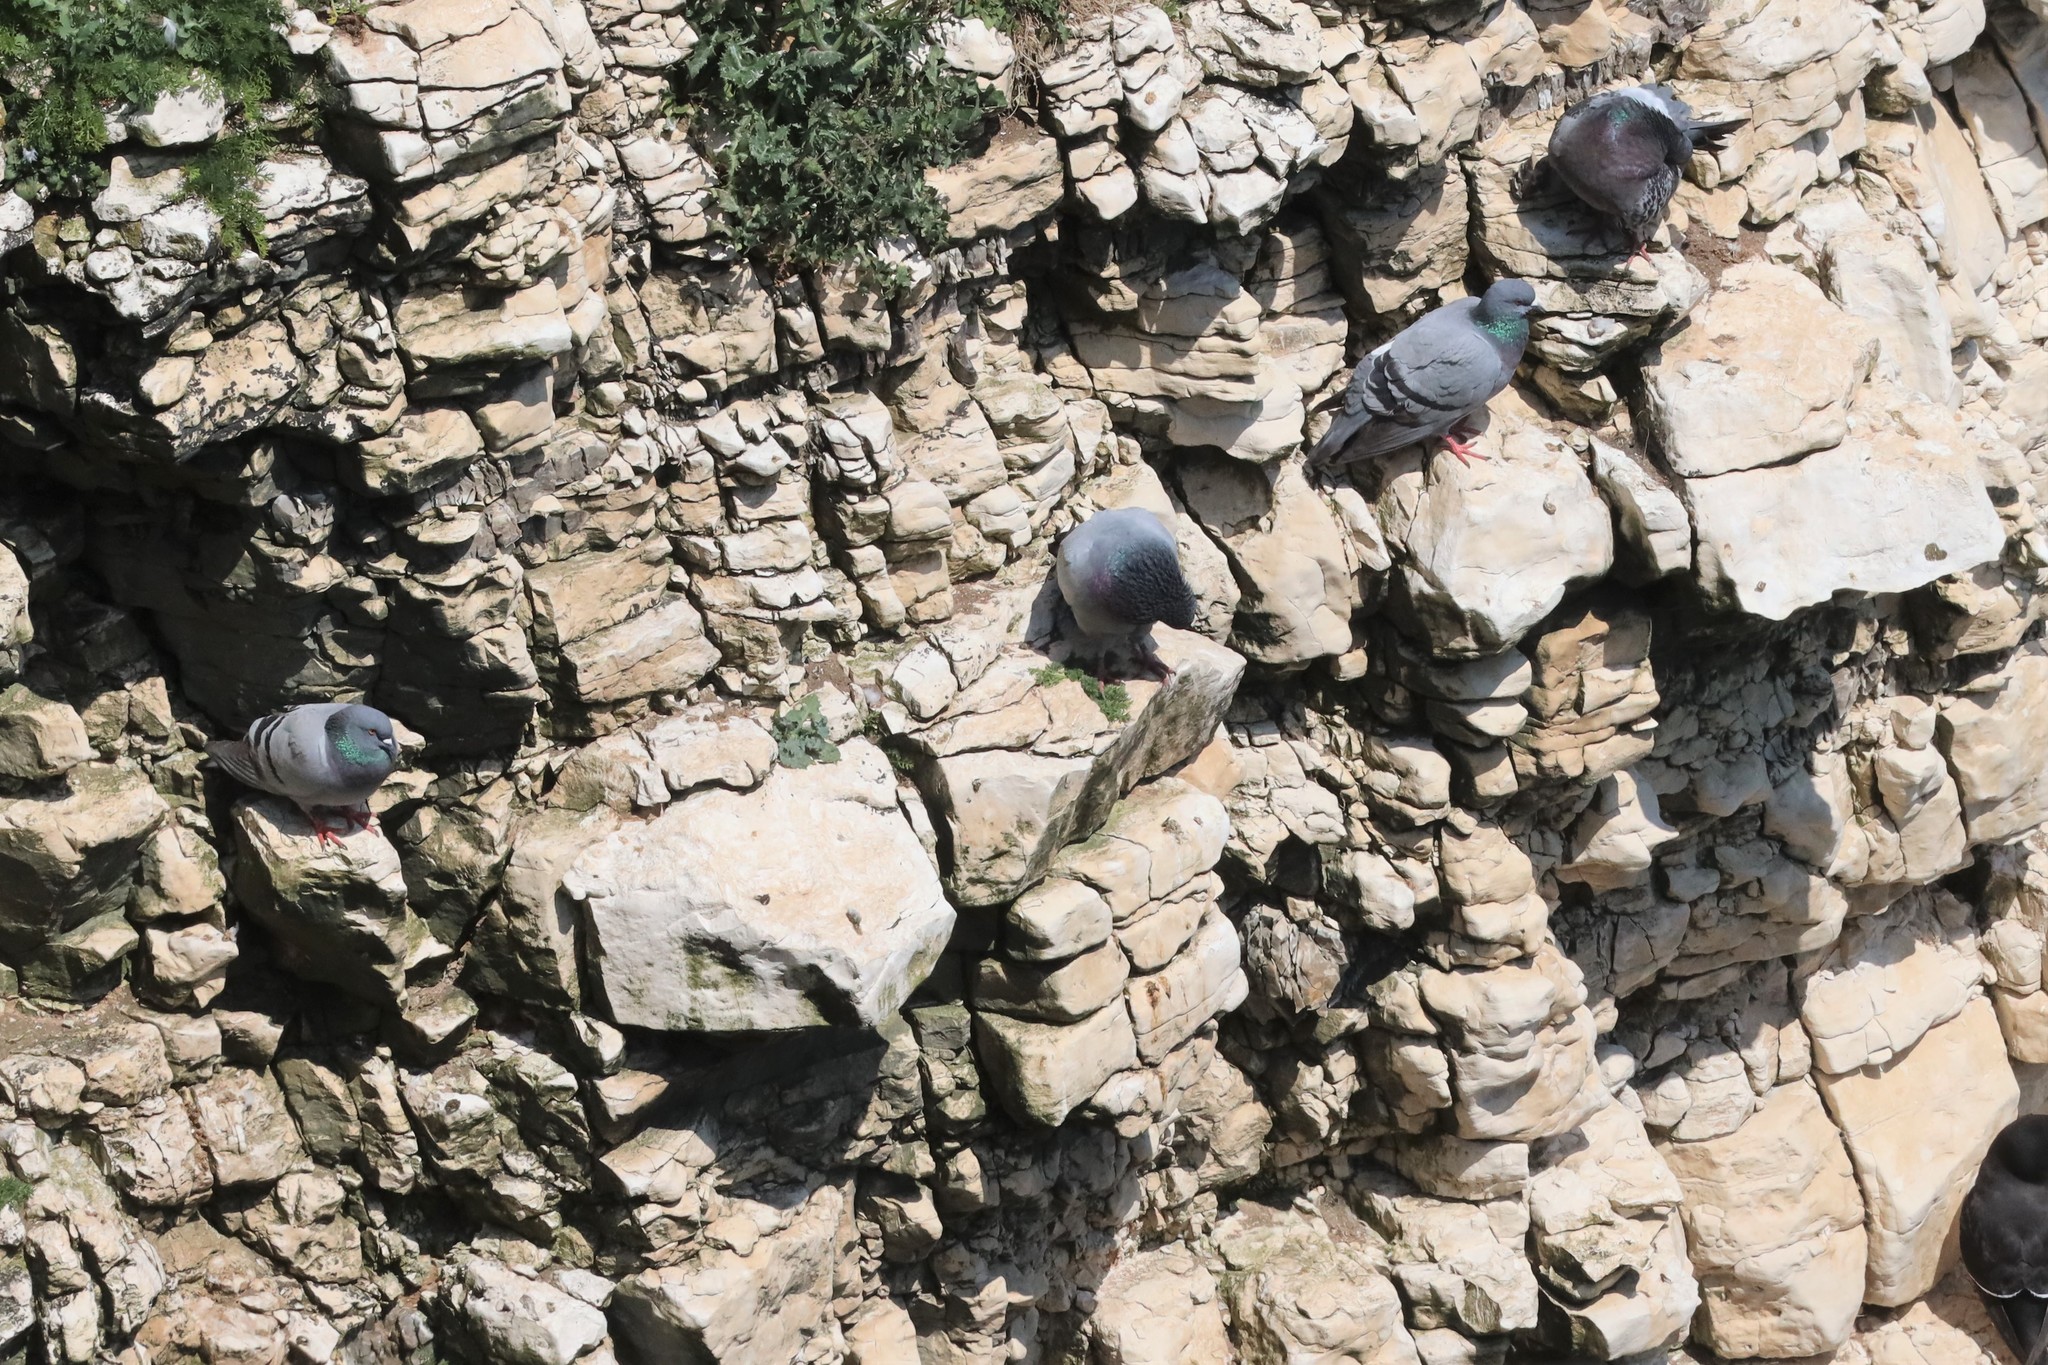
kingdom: Animalia
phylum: Chordata
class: Aves
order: Columbiformes
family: Columbidae
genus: Columba
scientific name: Columba livia
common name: Rock pigeon
